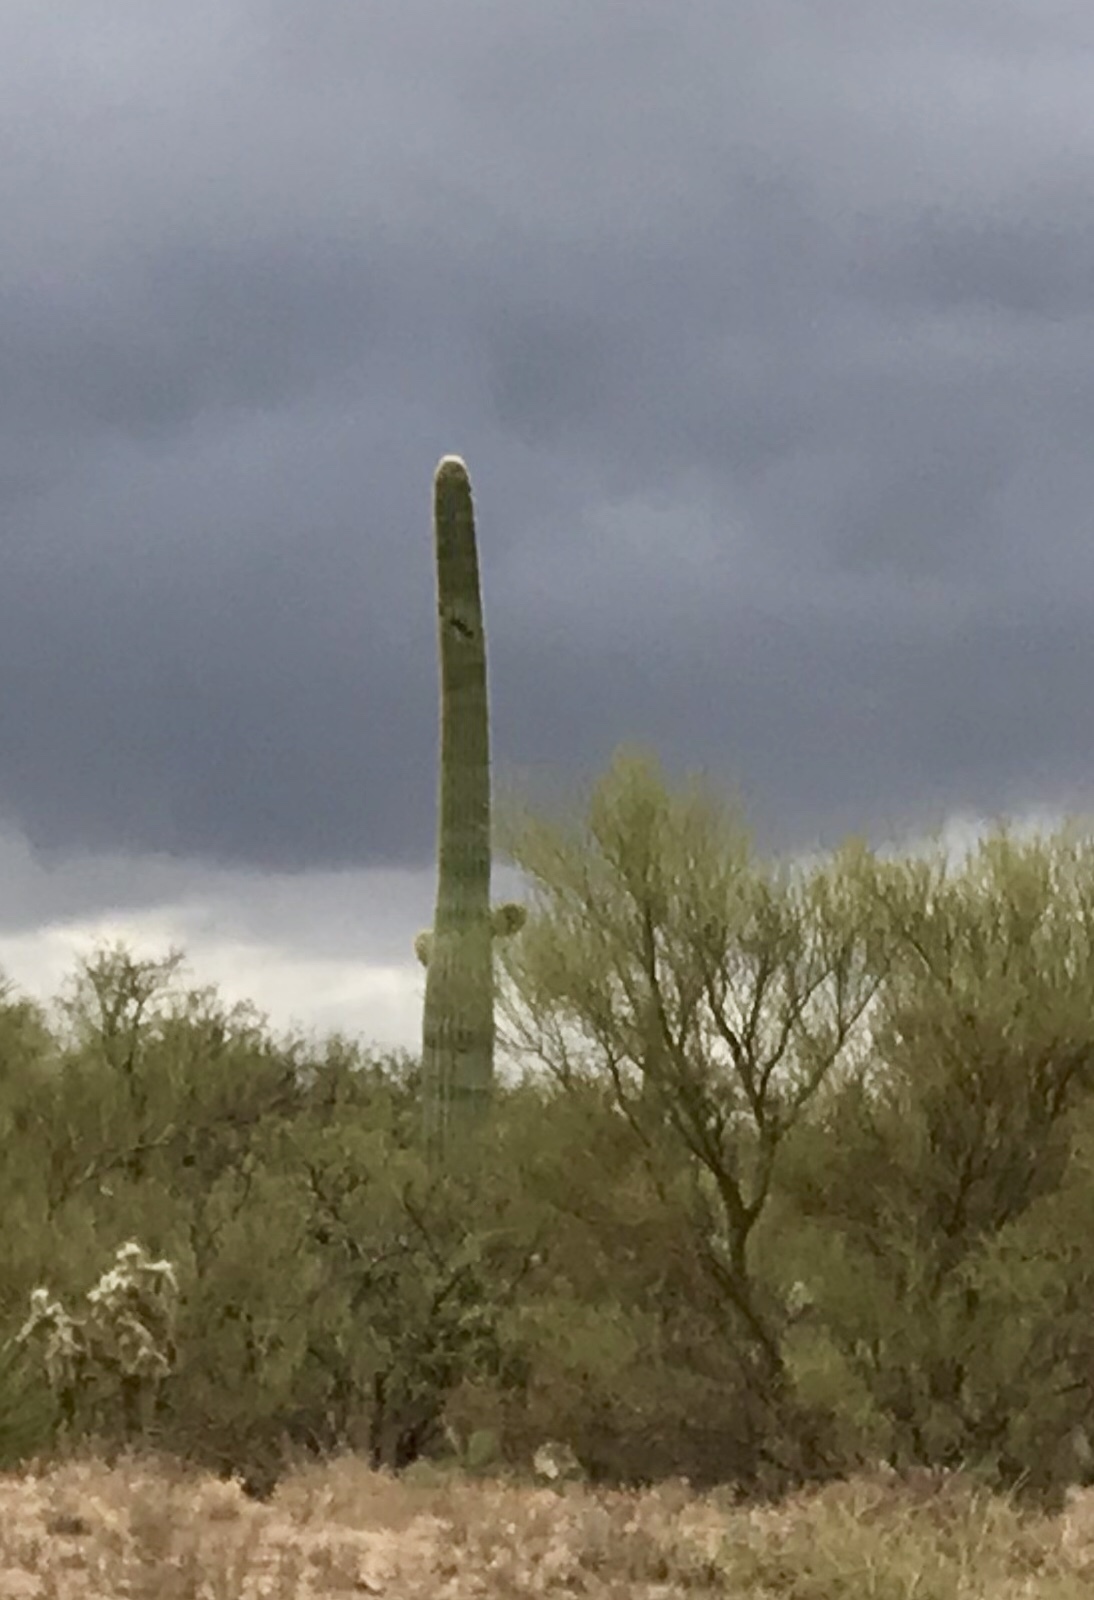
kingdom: Plantae
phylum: Tracheophyta
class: Magnoliopsida
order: Caryophyllales
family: Cactaceae
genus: Carnegiea
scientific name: Carnegiea gigantea
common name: Saguaro
